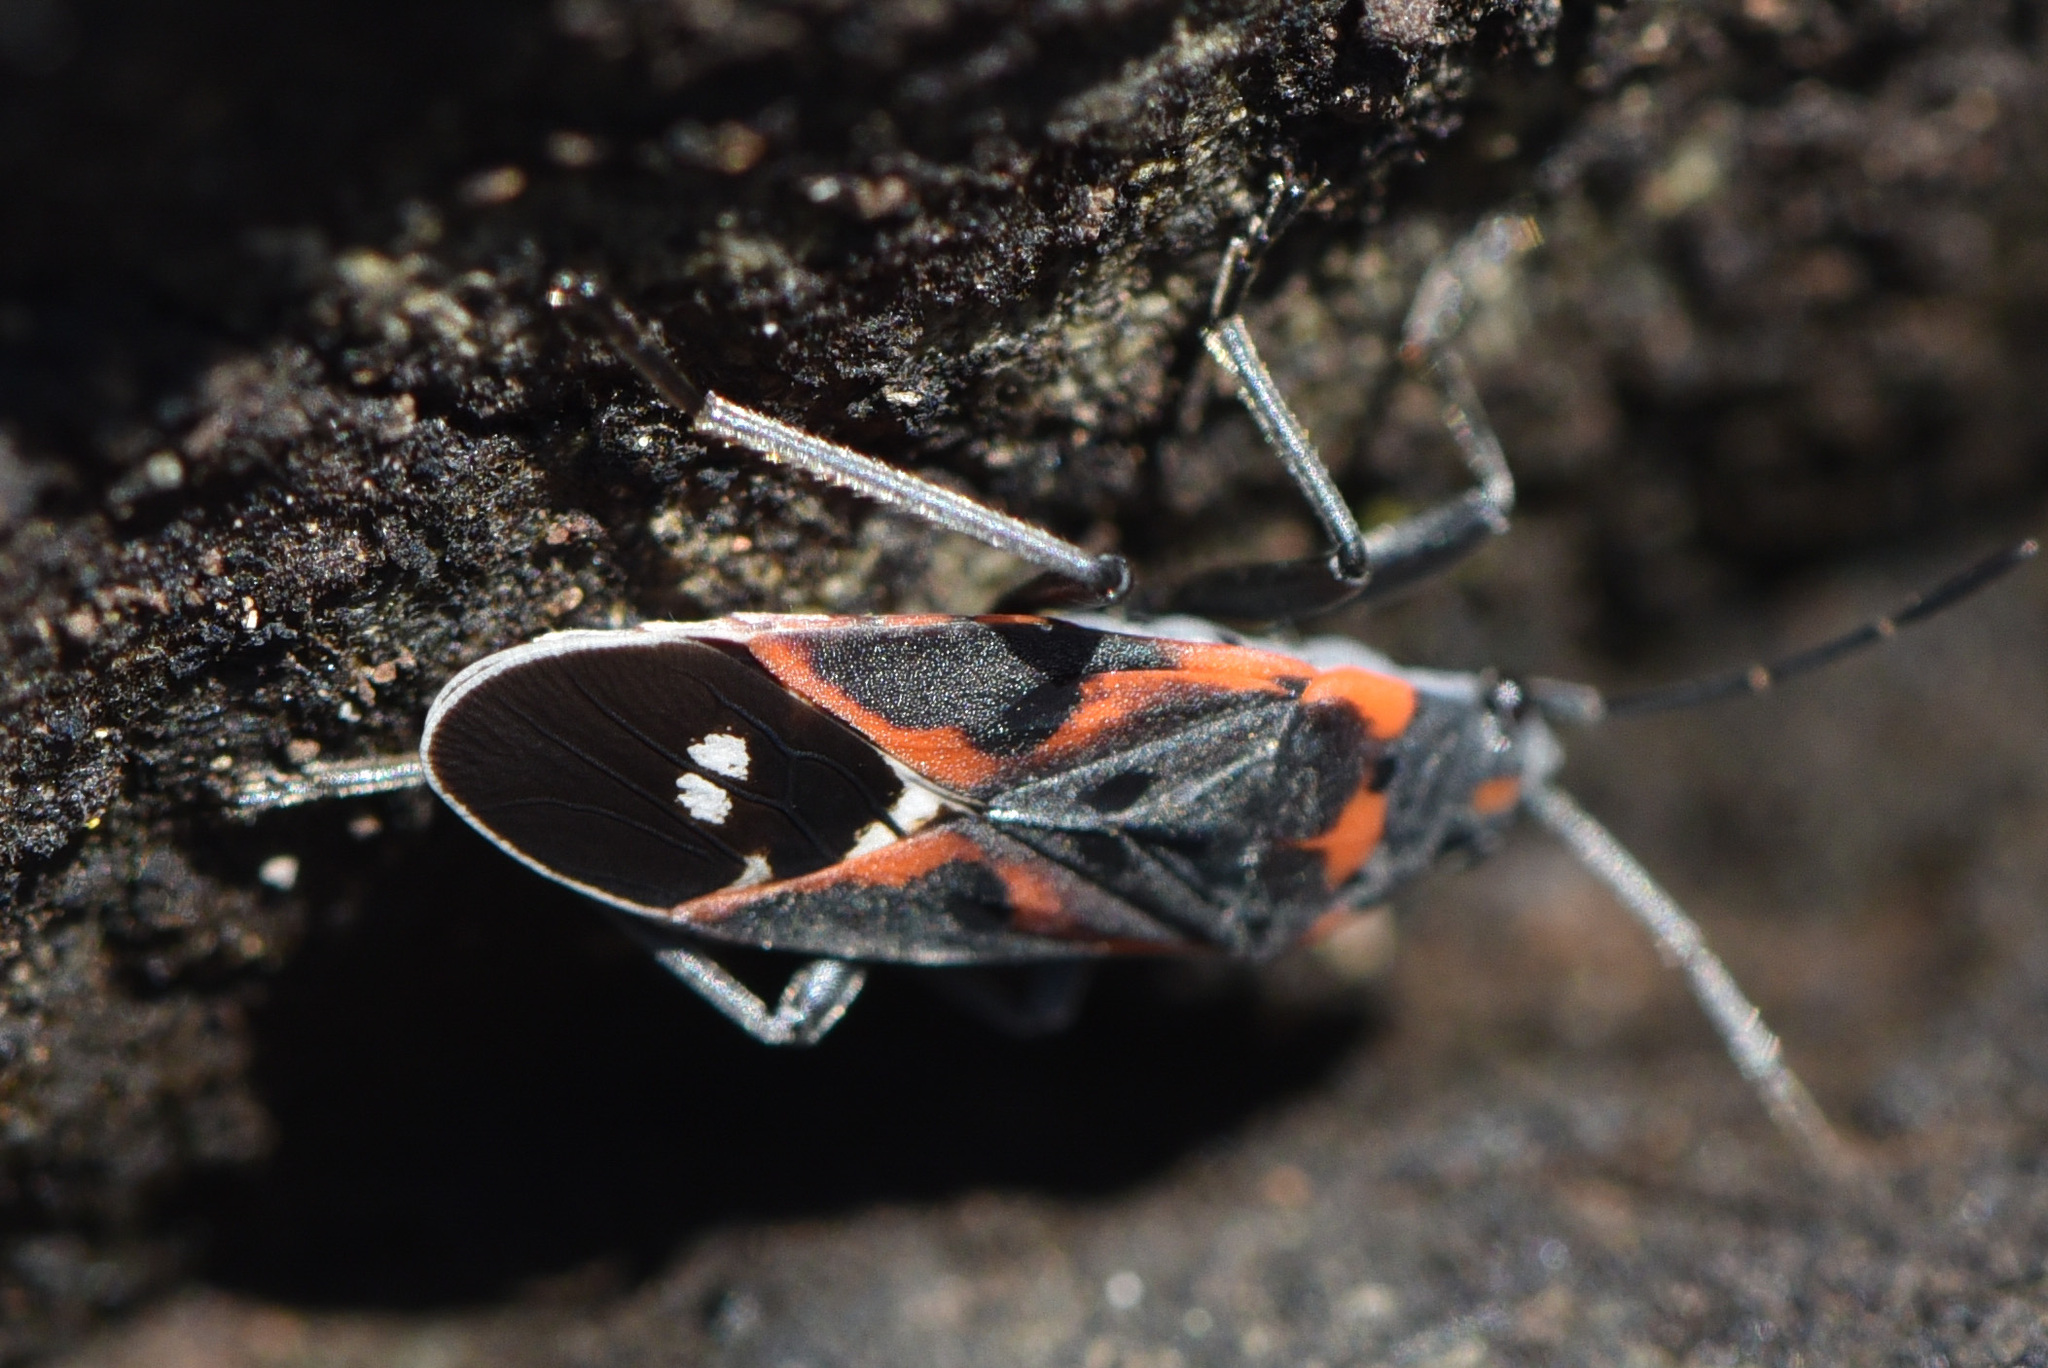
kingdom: Animalia
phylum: Arthropoda
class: Insecta
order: Hemiptera
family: Lygaeidae
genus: Lygaeus
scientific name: Lygaeus kalmii
